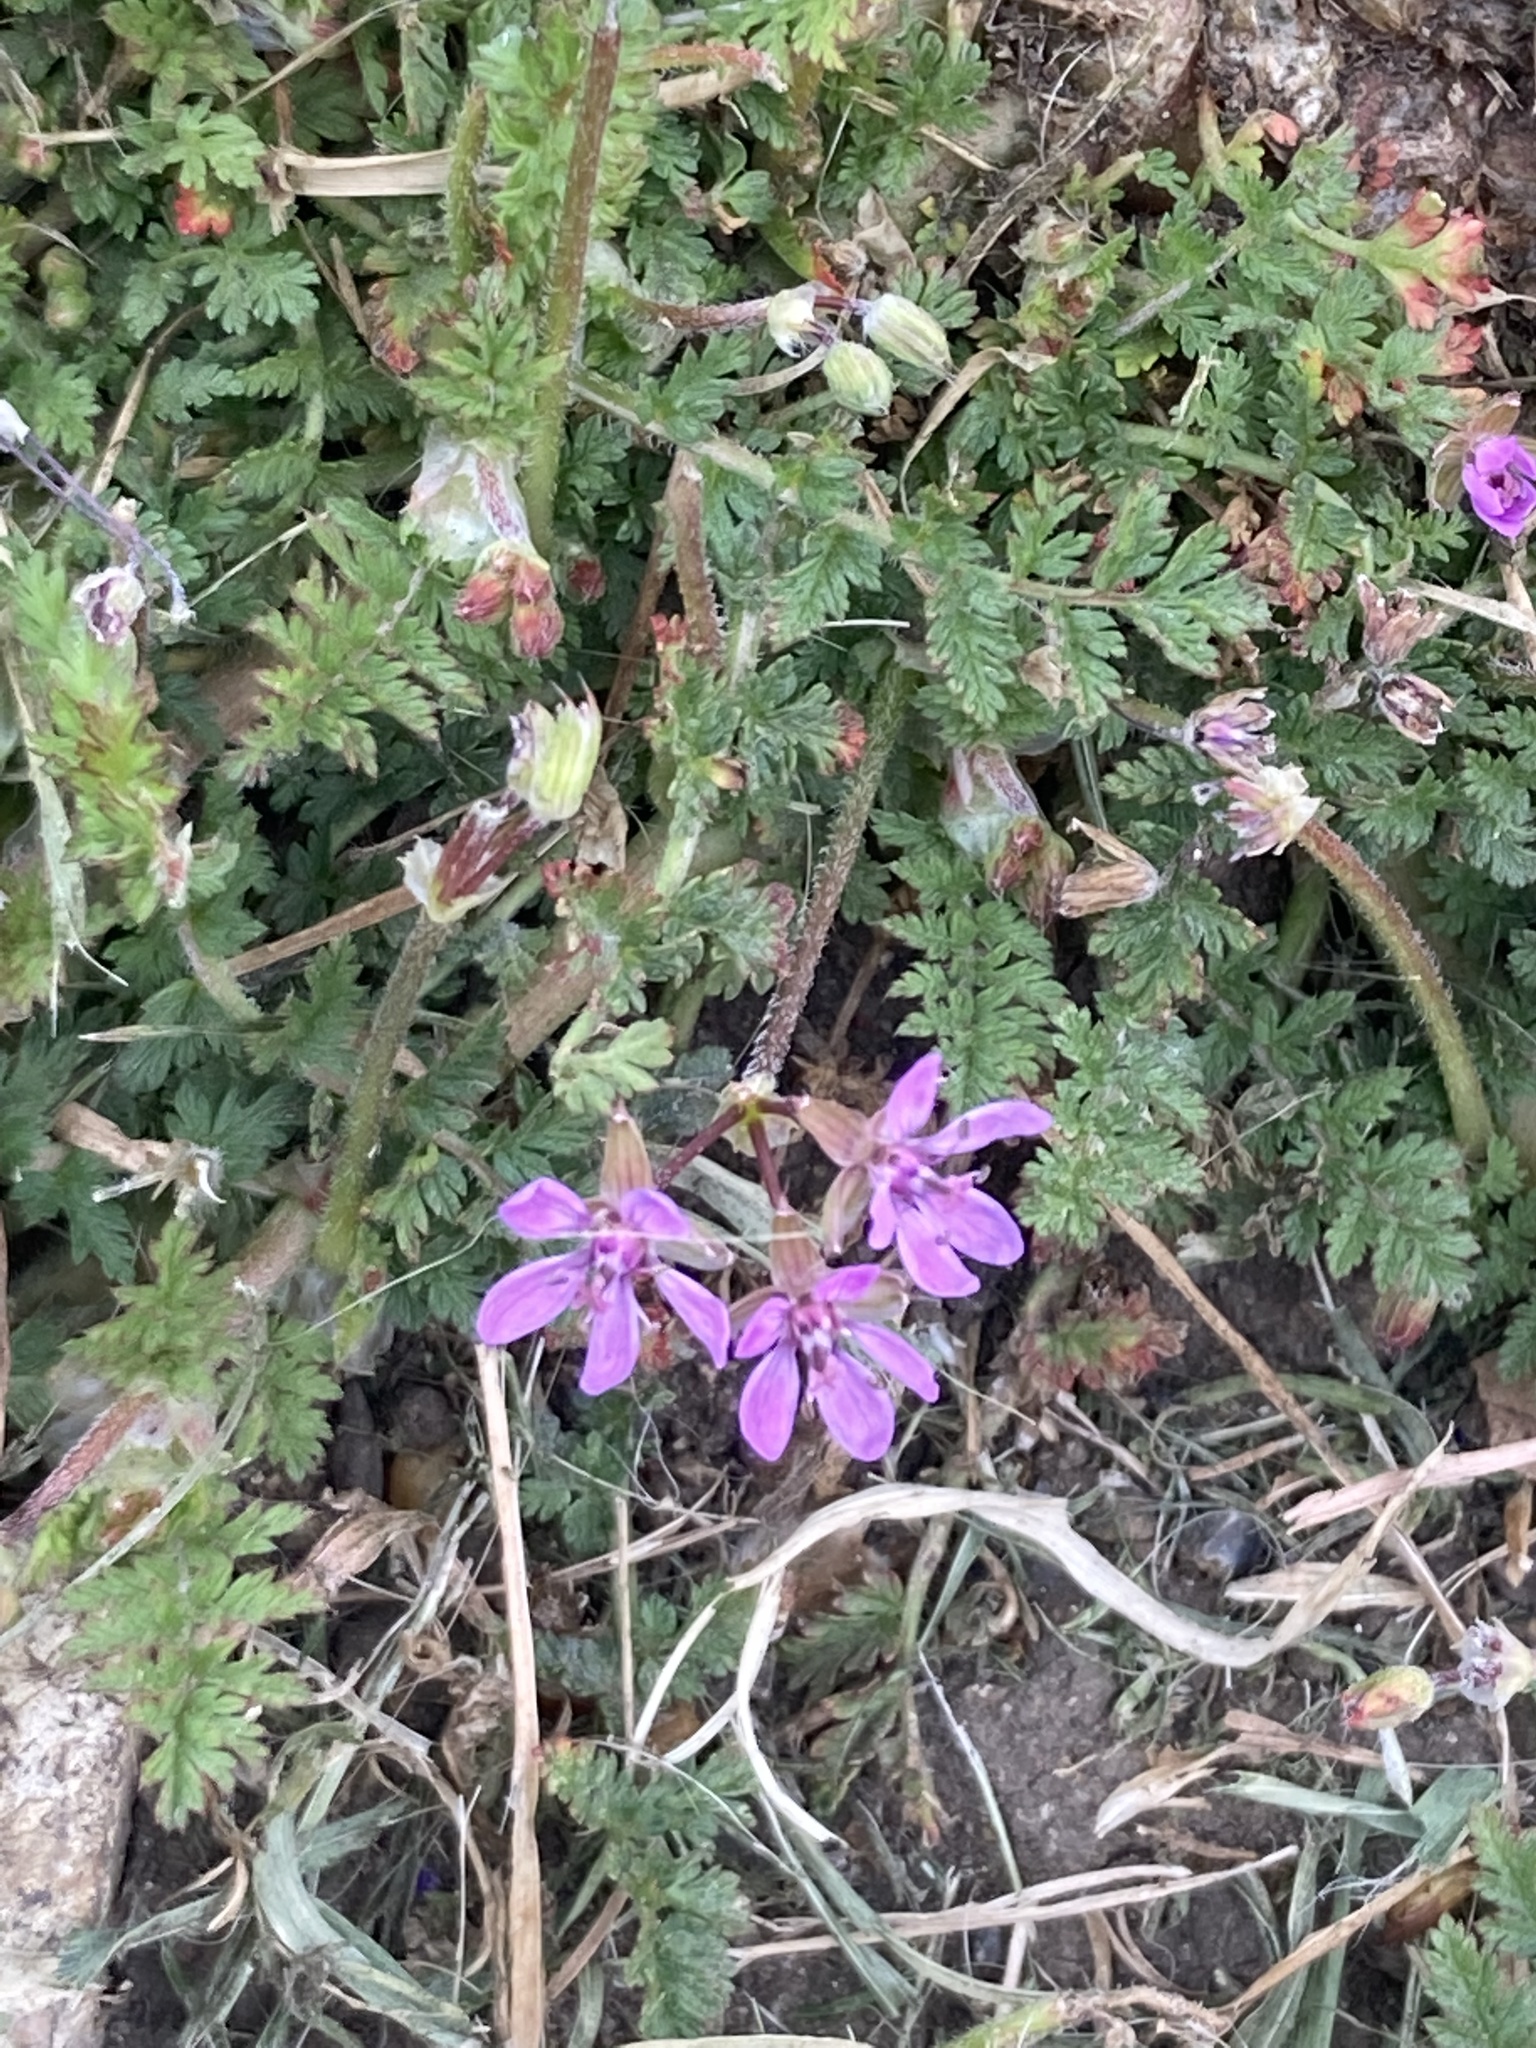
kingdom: Plantae
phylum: Tracheophyta
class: Magnoliopsida
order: Geraniales
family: Geraniaceae
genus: Erodium
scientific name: Erodium cicutarium
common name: Common stork's-bill
